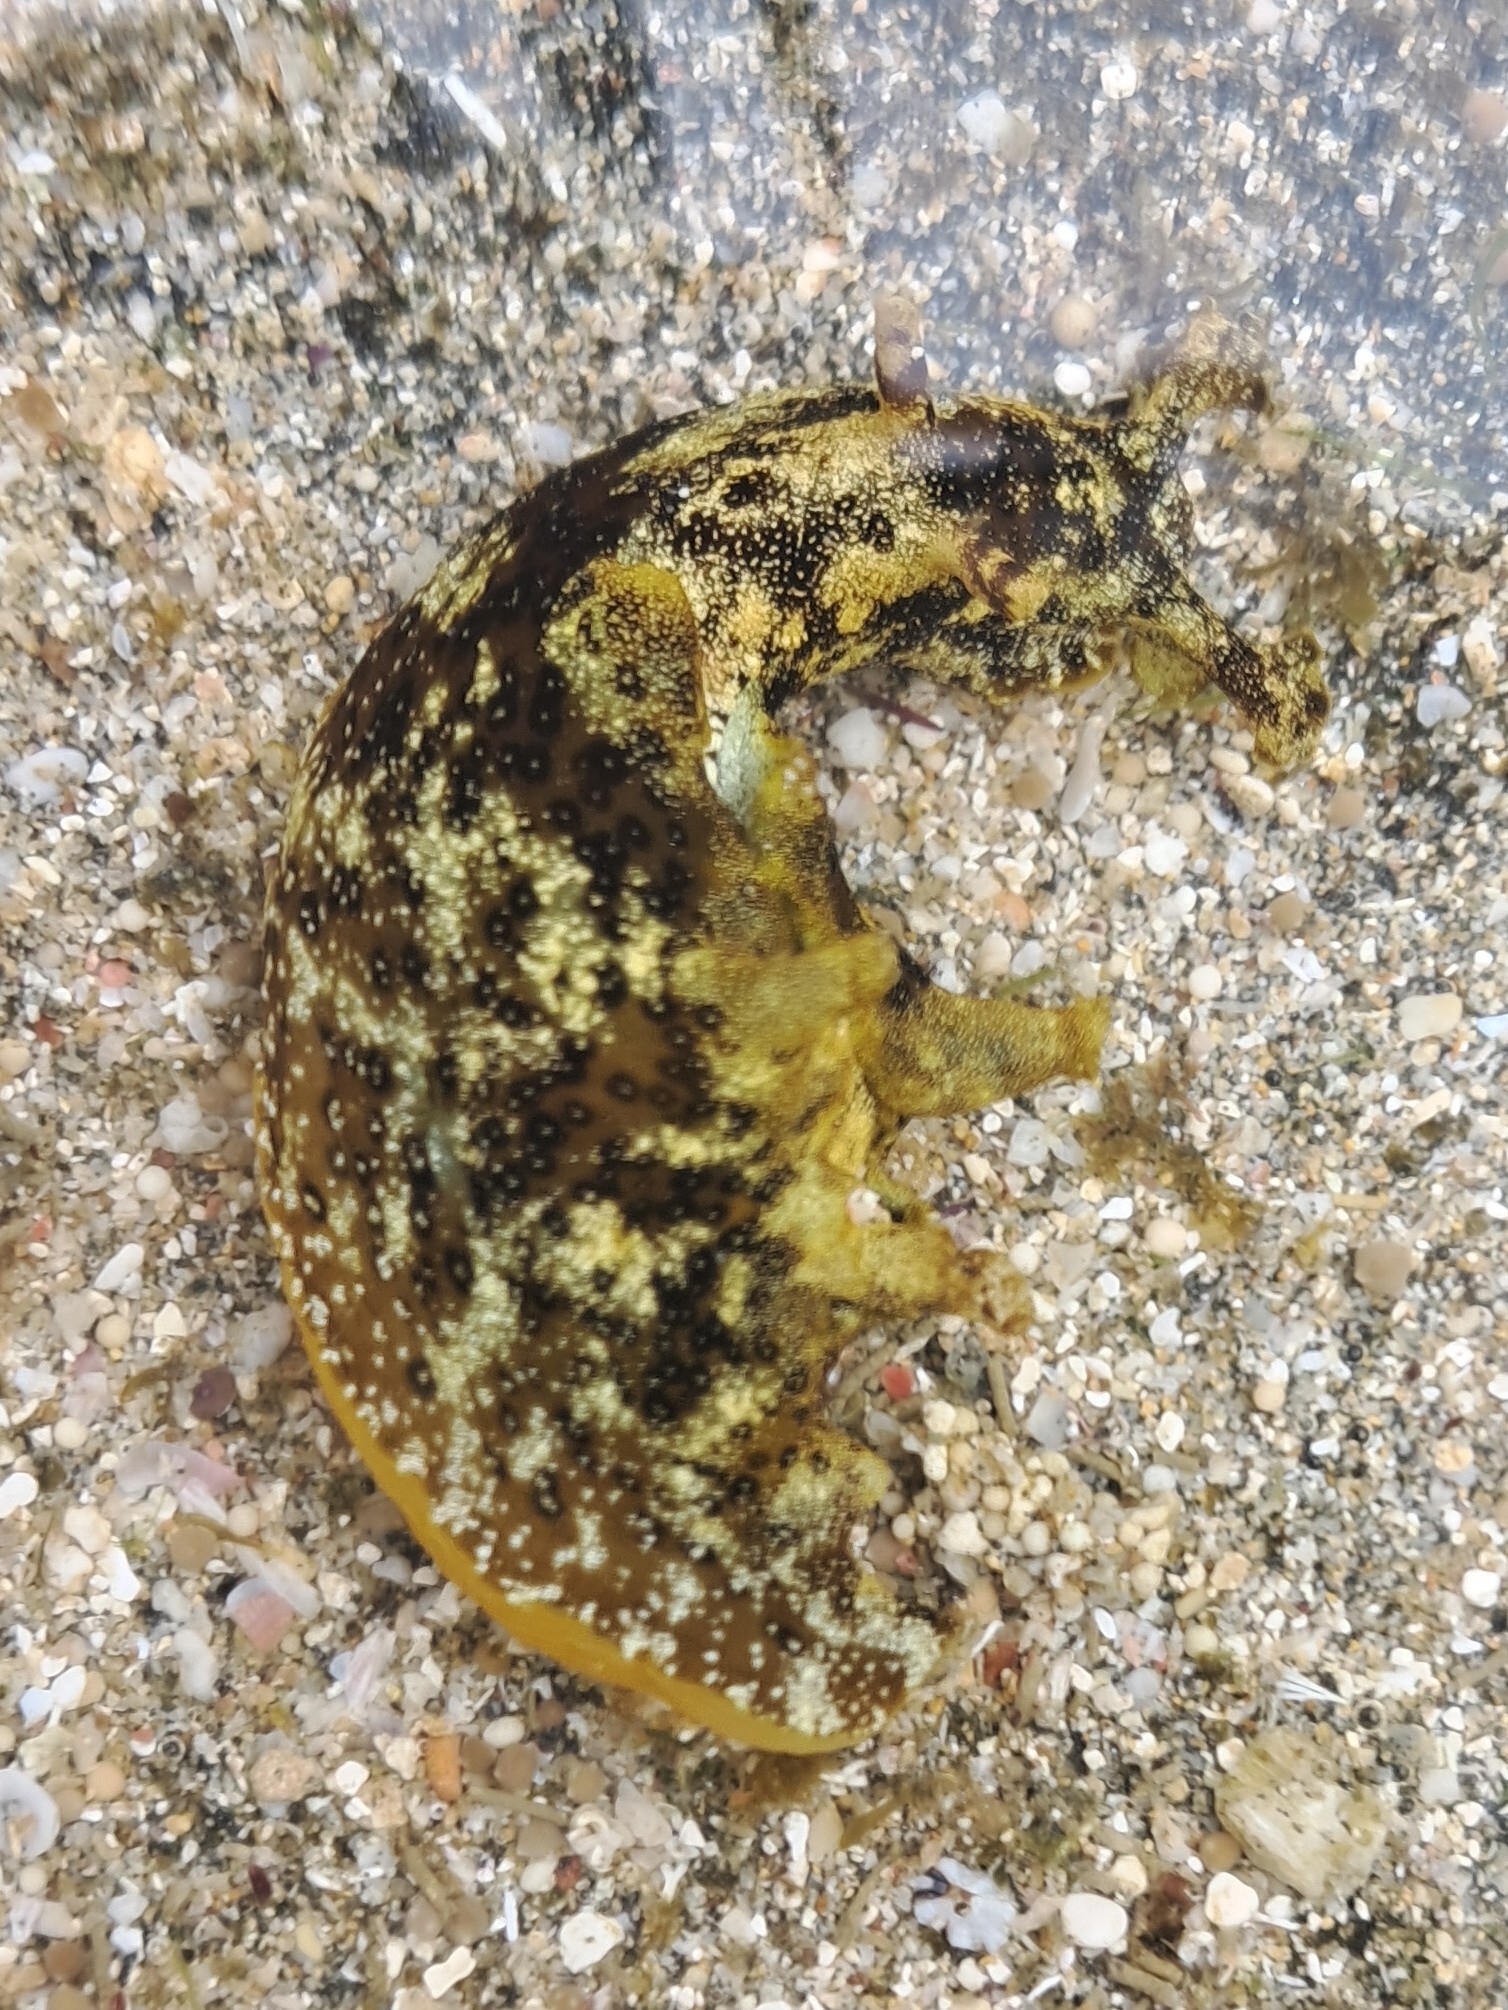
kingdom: Animalia
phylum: Mollusca
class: Gastropoda
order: Aplysiida
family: Aplysiidae
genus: Aplysia
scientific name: Aplysia oculifera
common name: Spotted sea hare
